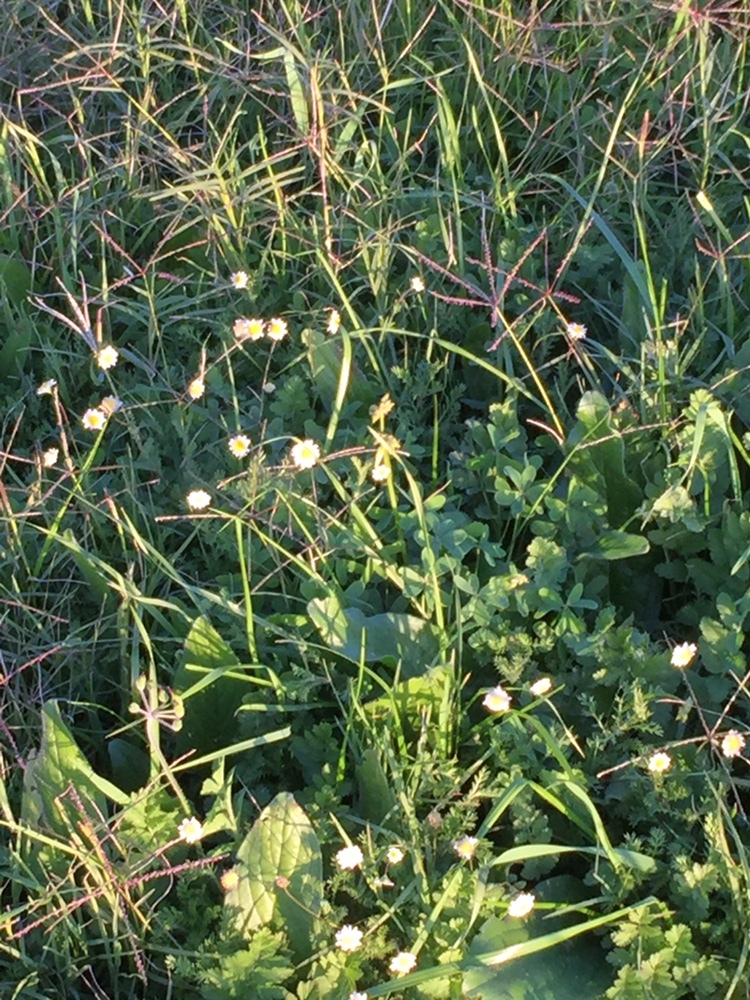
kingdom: Plantae
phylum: Tracheophyta
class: Magnoliopsida
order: Asterales
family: Asteraceae
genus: Cotula
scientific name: Cotula turbinata
